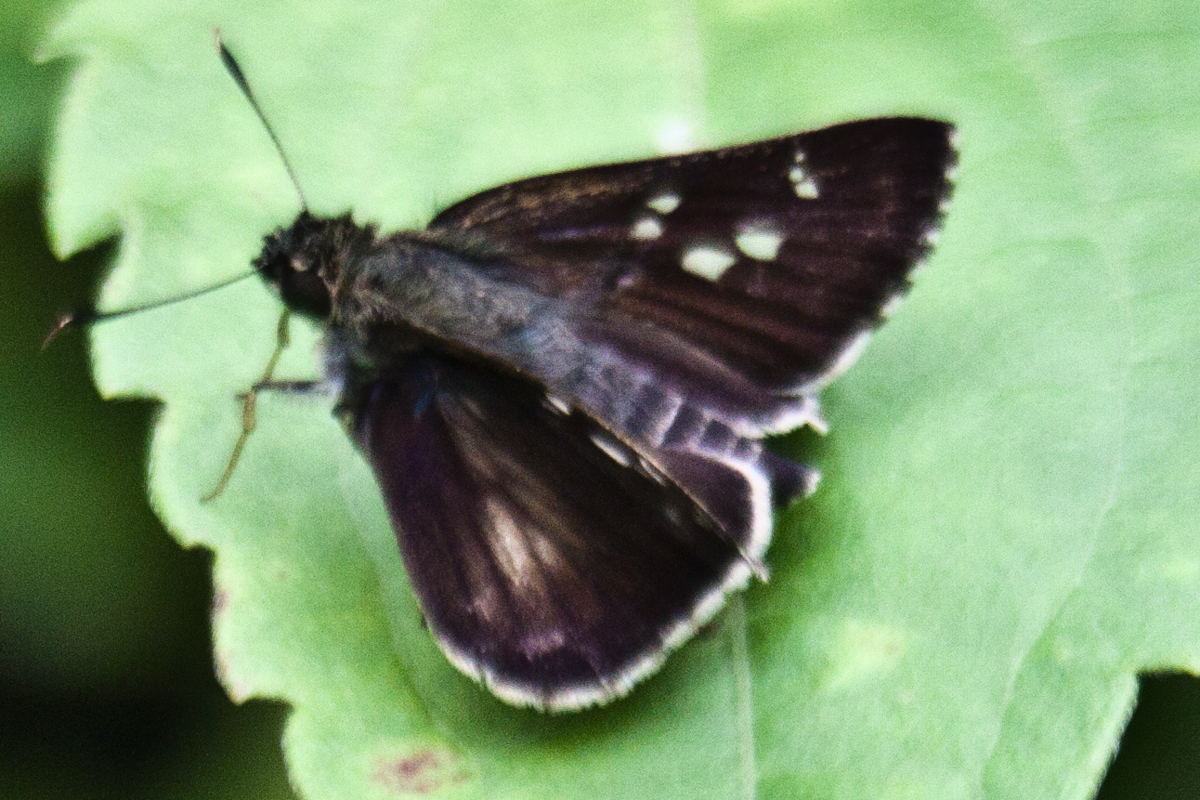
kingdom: Animalia
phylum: Arthropoda
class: Insecta
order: Lepidoptera
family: Hesperiidae
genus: Halpe
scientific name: Halpe porus
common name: Moore's ace
